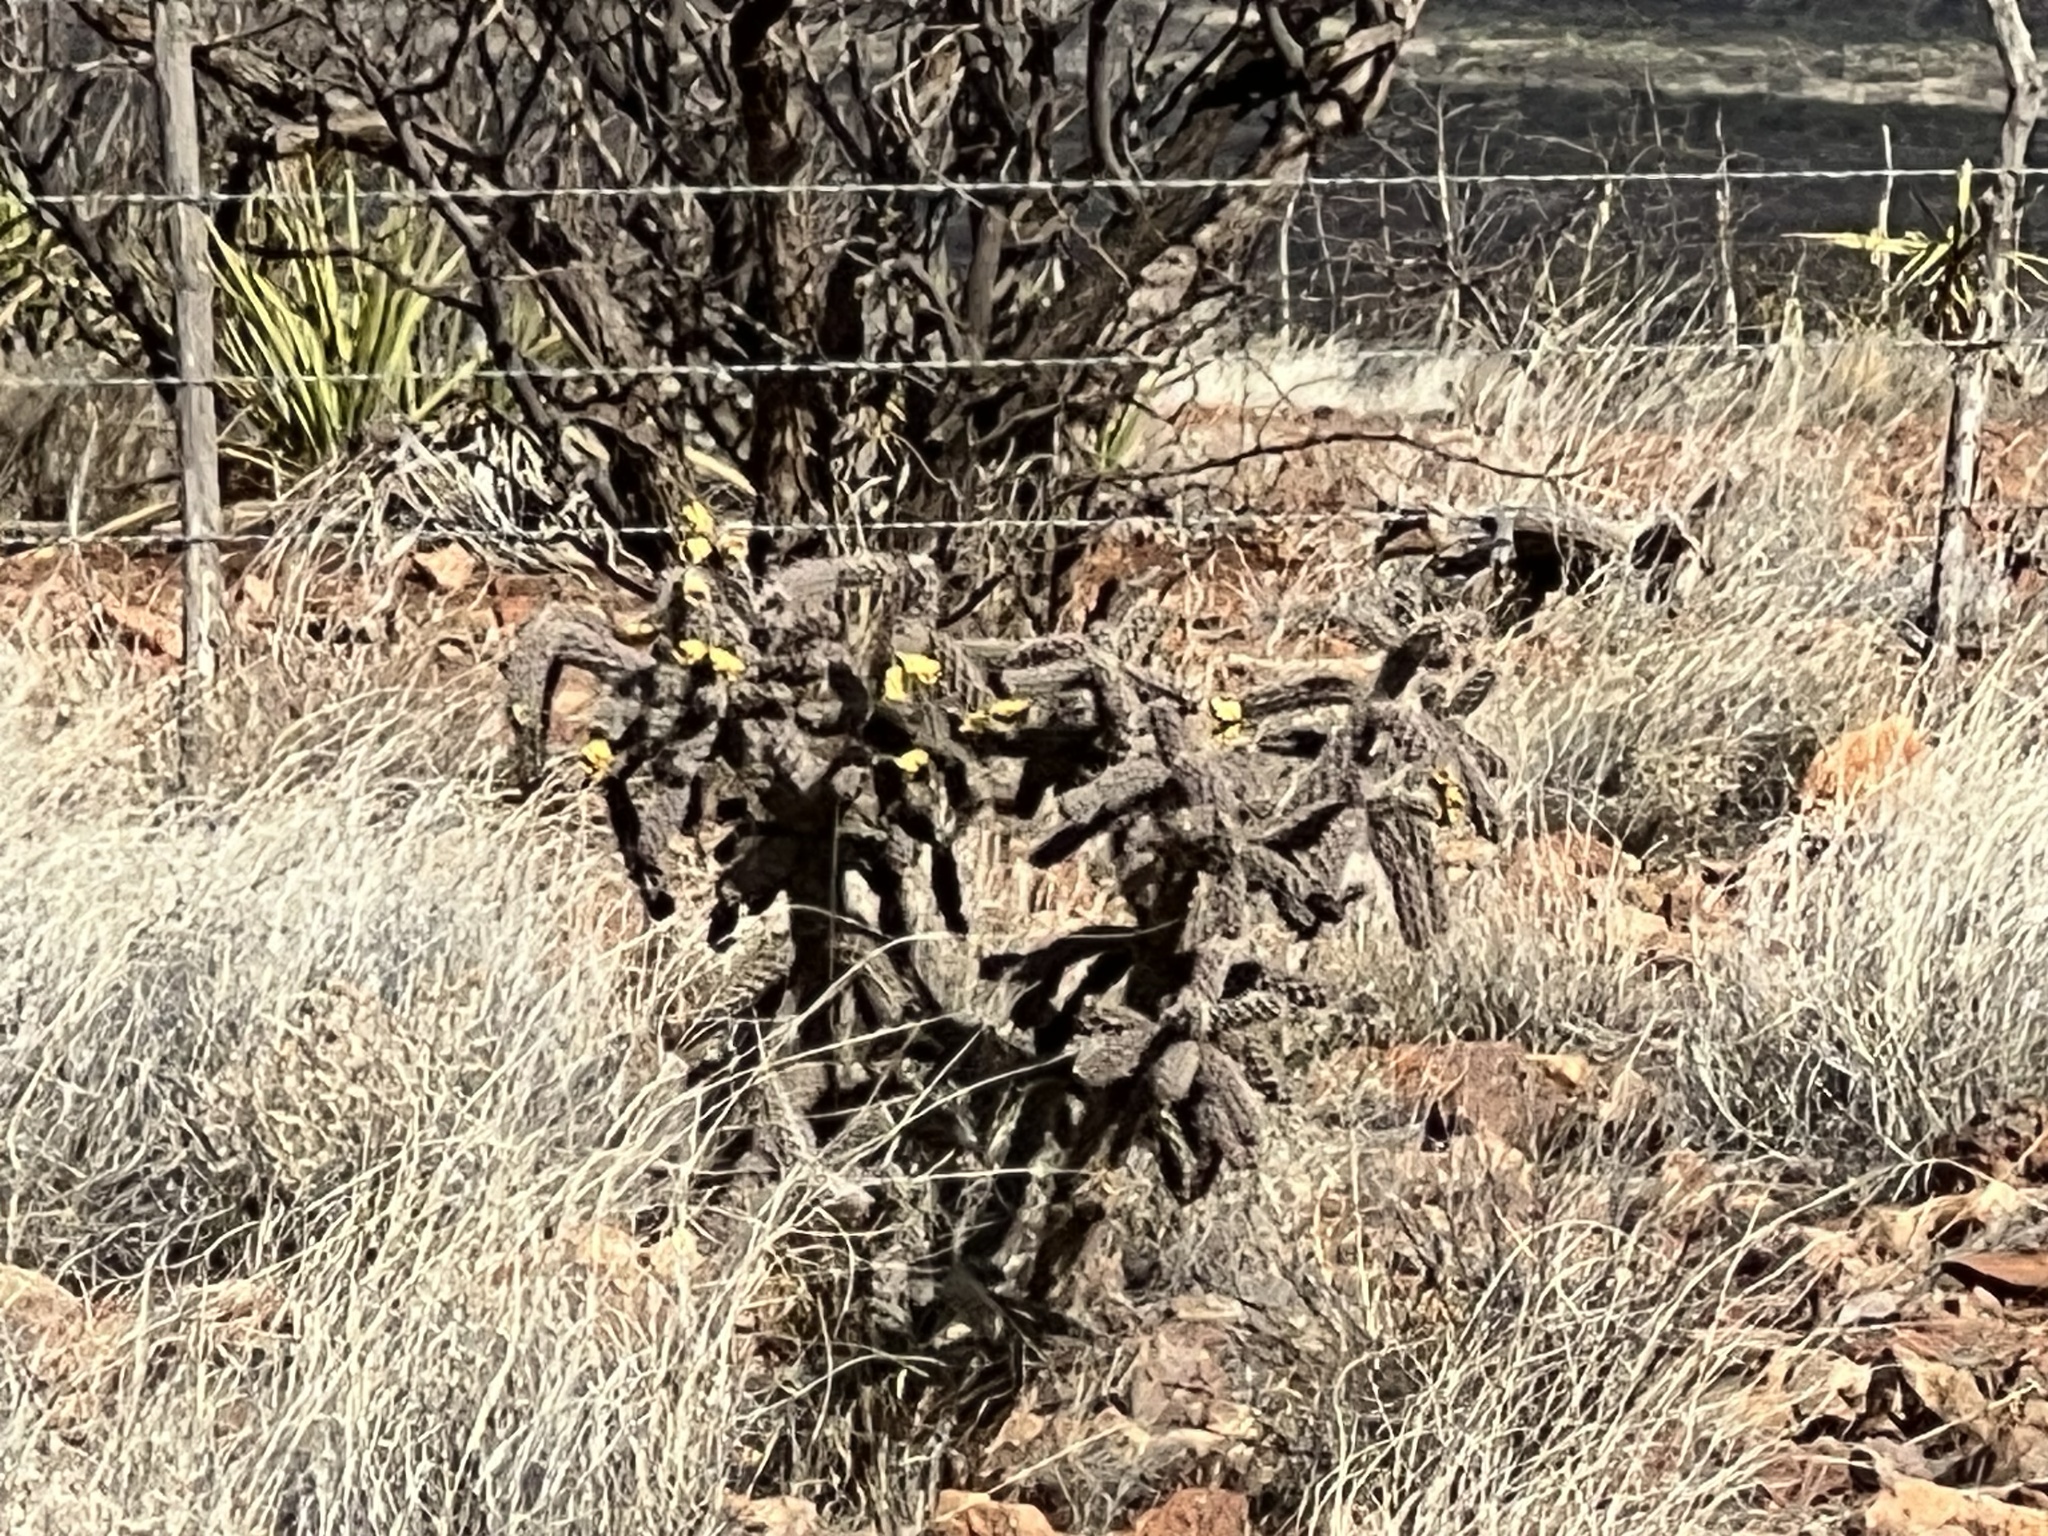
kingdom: Plantae
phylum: Tracheophyta
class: Magnoliopsida
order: Caryophyllales
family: Cactaceae
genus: Cylindropuntia
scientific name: Cylindropuntia imbricata
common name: Candelabrum cactus
